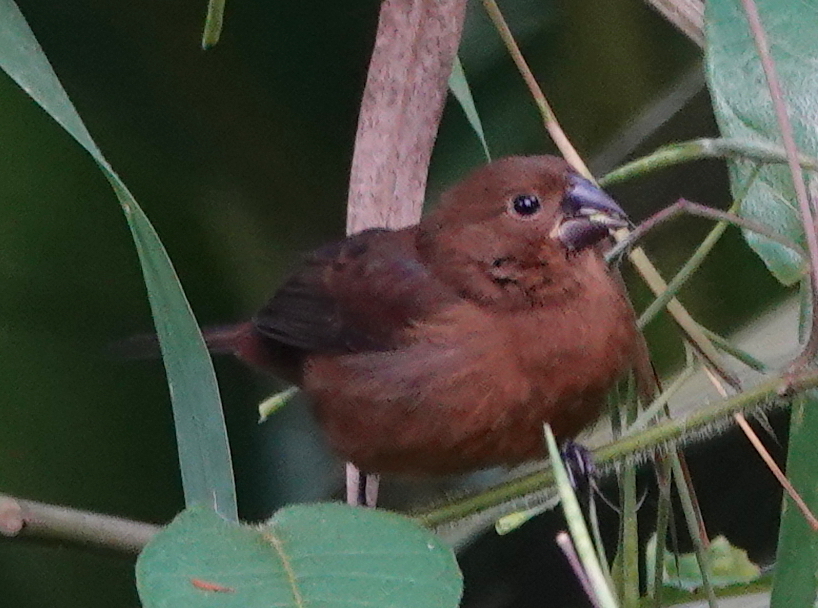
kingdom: Animalia
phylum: Chordata
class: Aves
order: Passeriformes
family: Thraupidae
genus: Sporophila
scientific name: Sporophila funerea
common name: Thick-billed seed-finch
